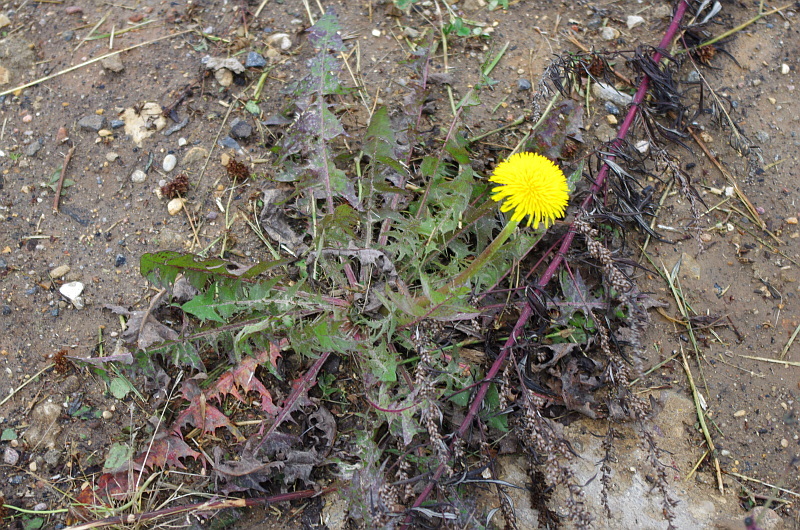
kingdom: Plantae
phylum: Tracheophyta
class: Magnoliopsida
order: Asterales
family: Asteraceae
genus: Taraxacum
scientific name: Taraxacum officinale
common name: Common dandelion
